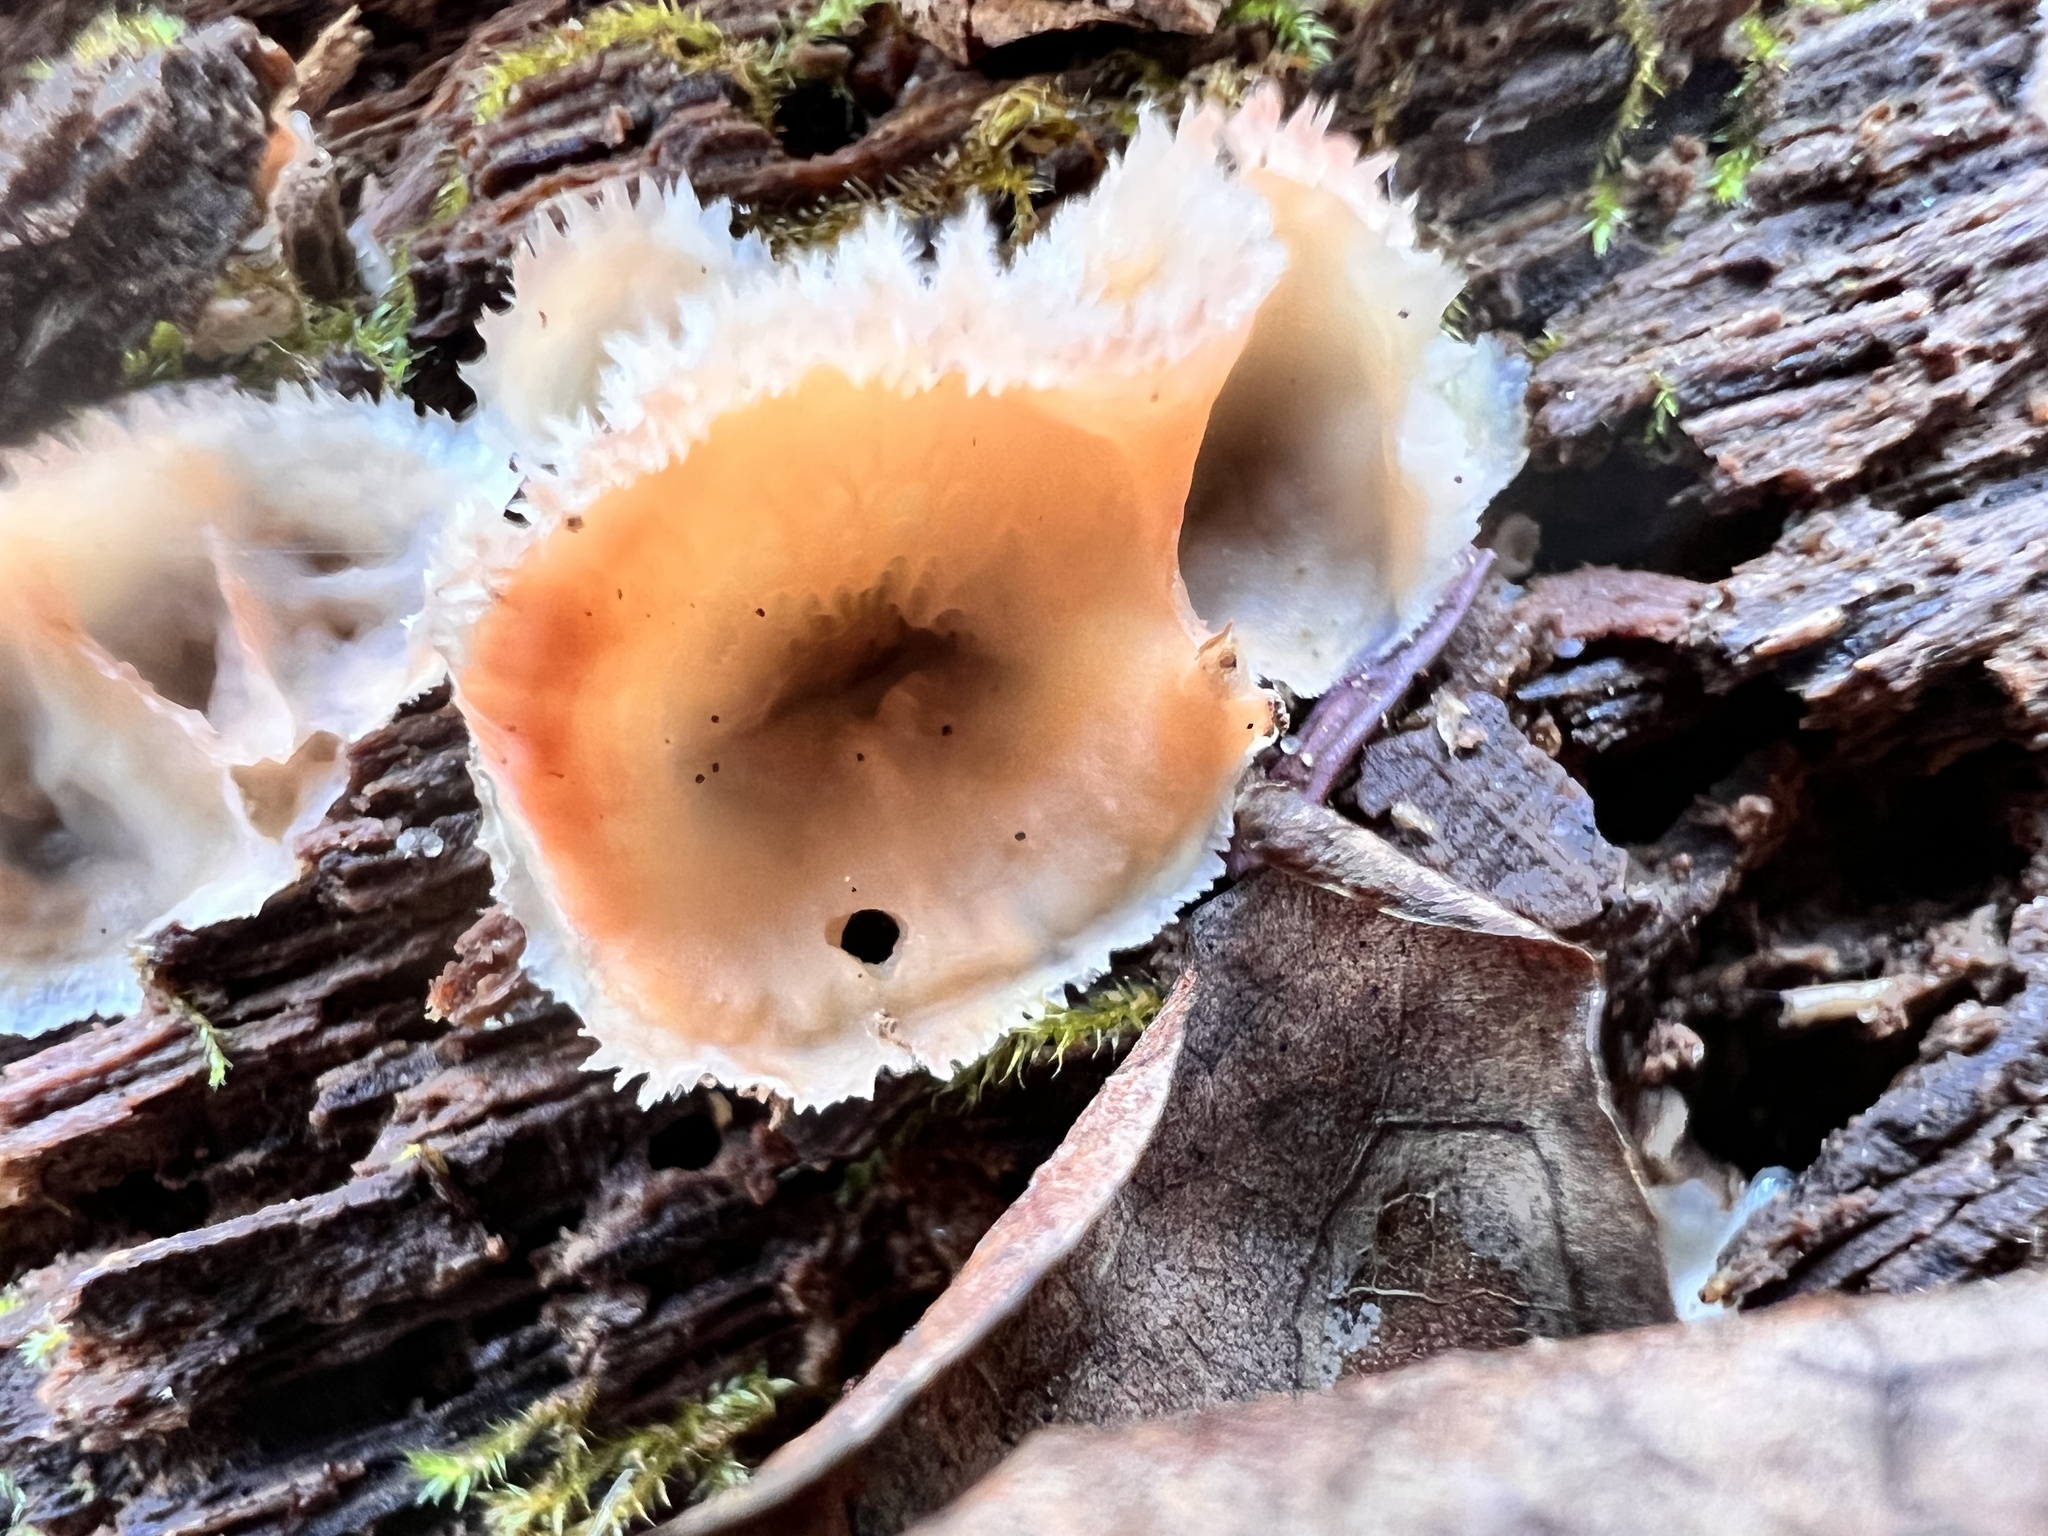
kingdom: Fungi
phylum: Basidiomycota
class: Agaricomycetes
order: Polyporales
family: Meruliaceae
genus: Phlebia
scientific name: Phlebia tremellosa
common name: Jelly rot
